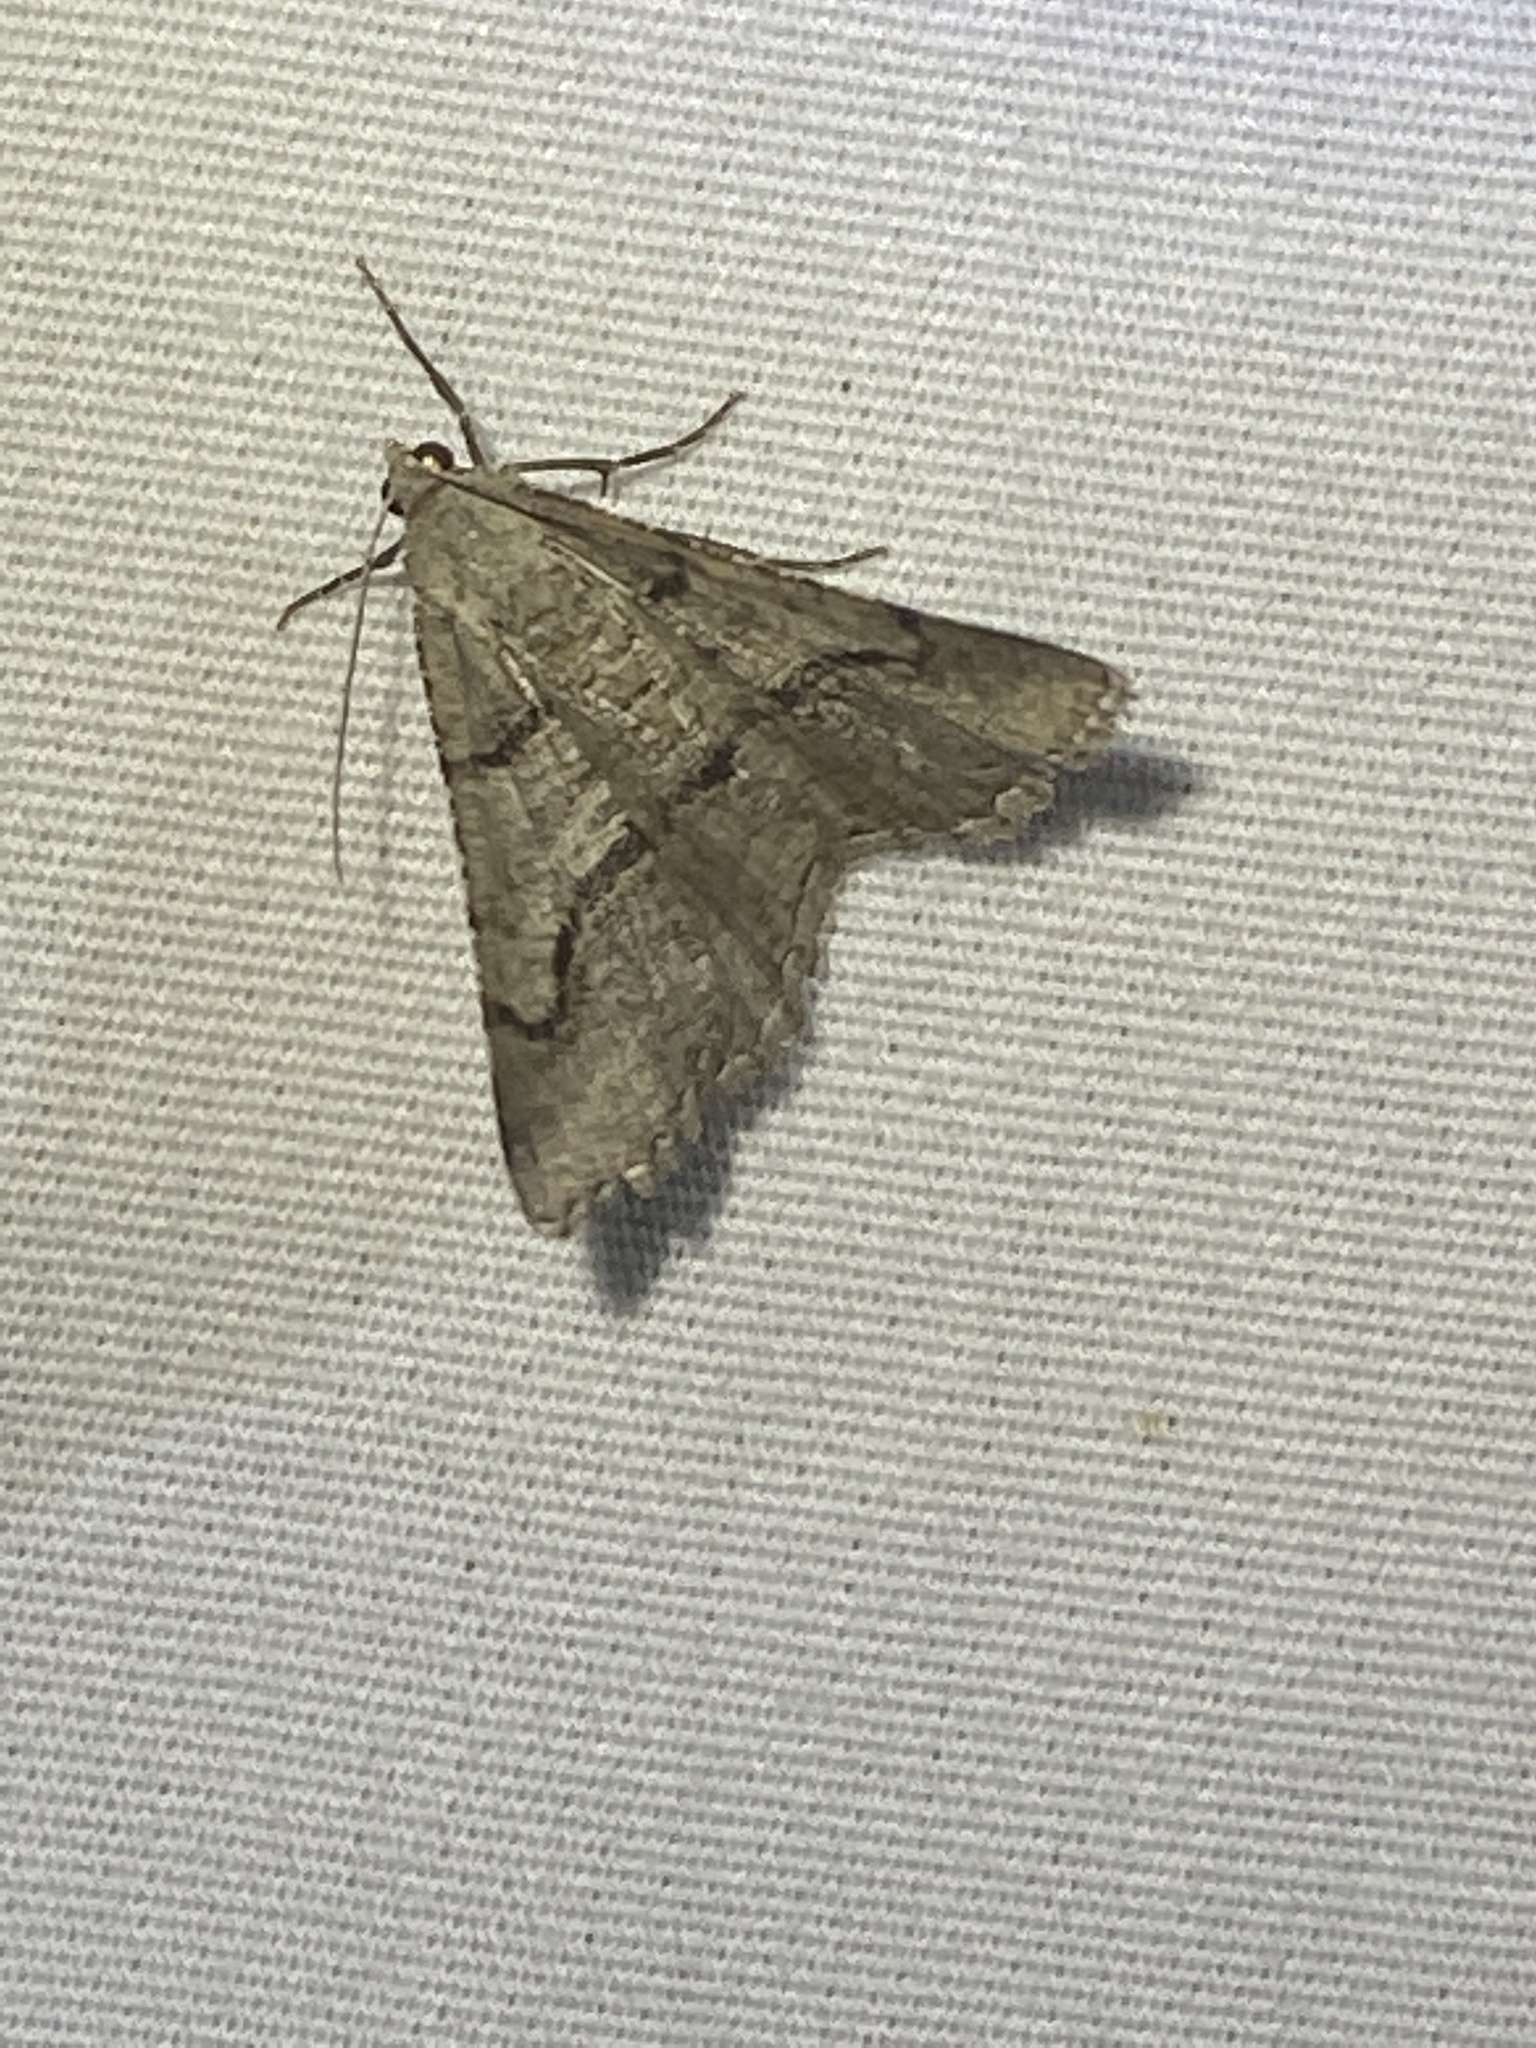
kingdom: Animalia
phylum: Arthropoda
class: Insecta
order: Lepidoptera
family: Geometridae
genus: Digrammia
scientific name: Digrammia continuata
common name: Curve-lined angle
